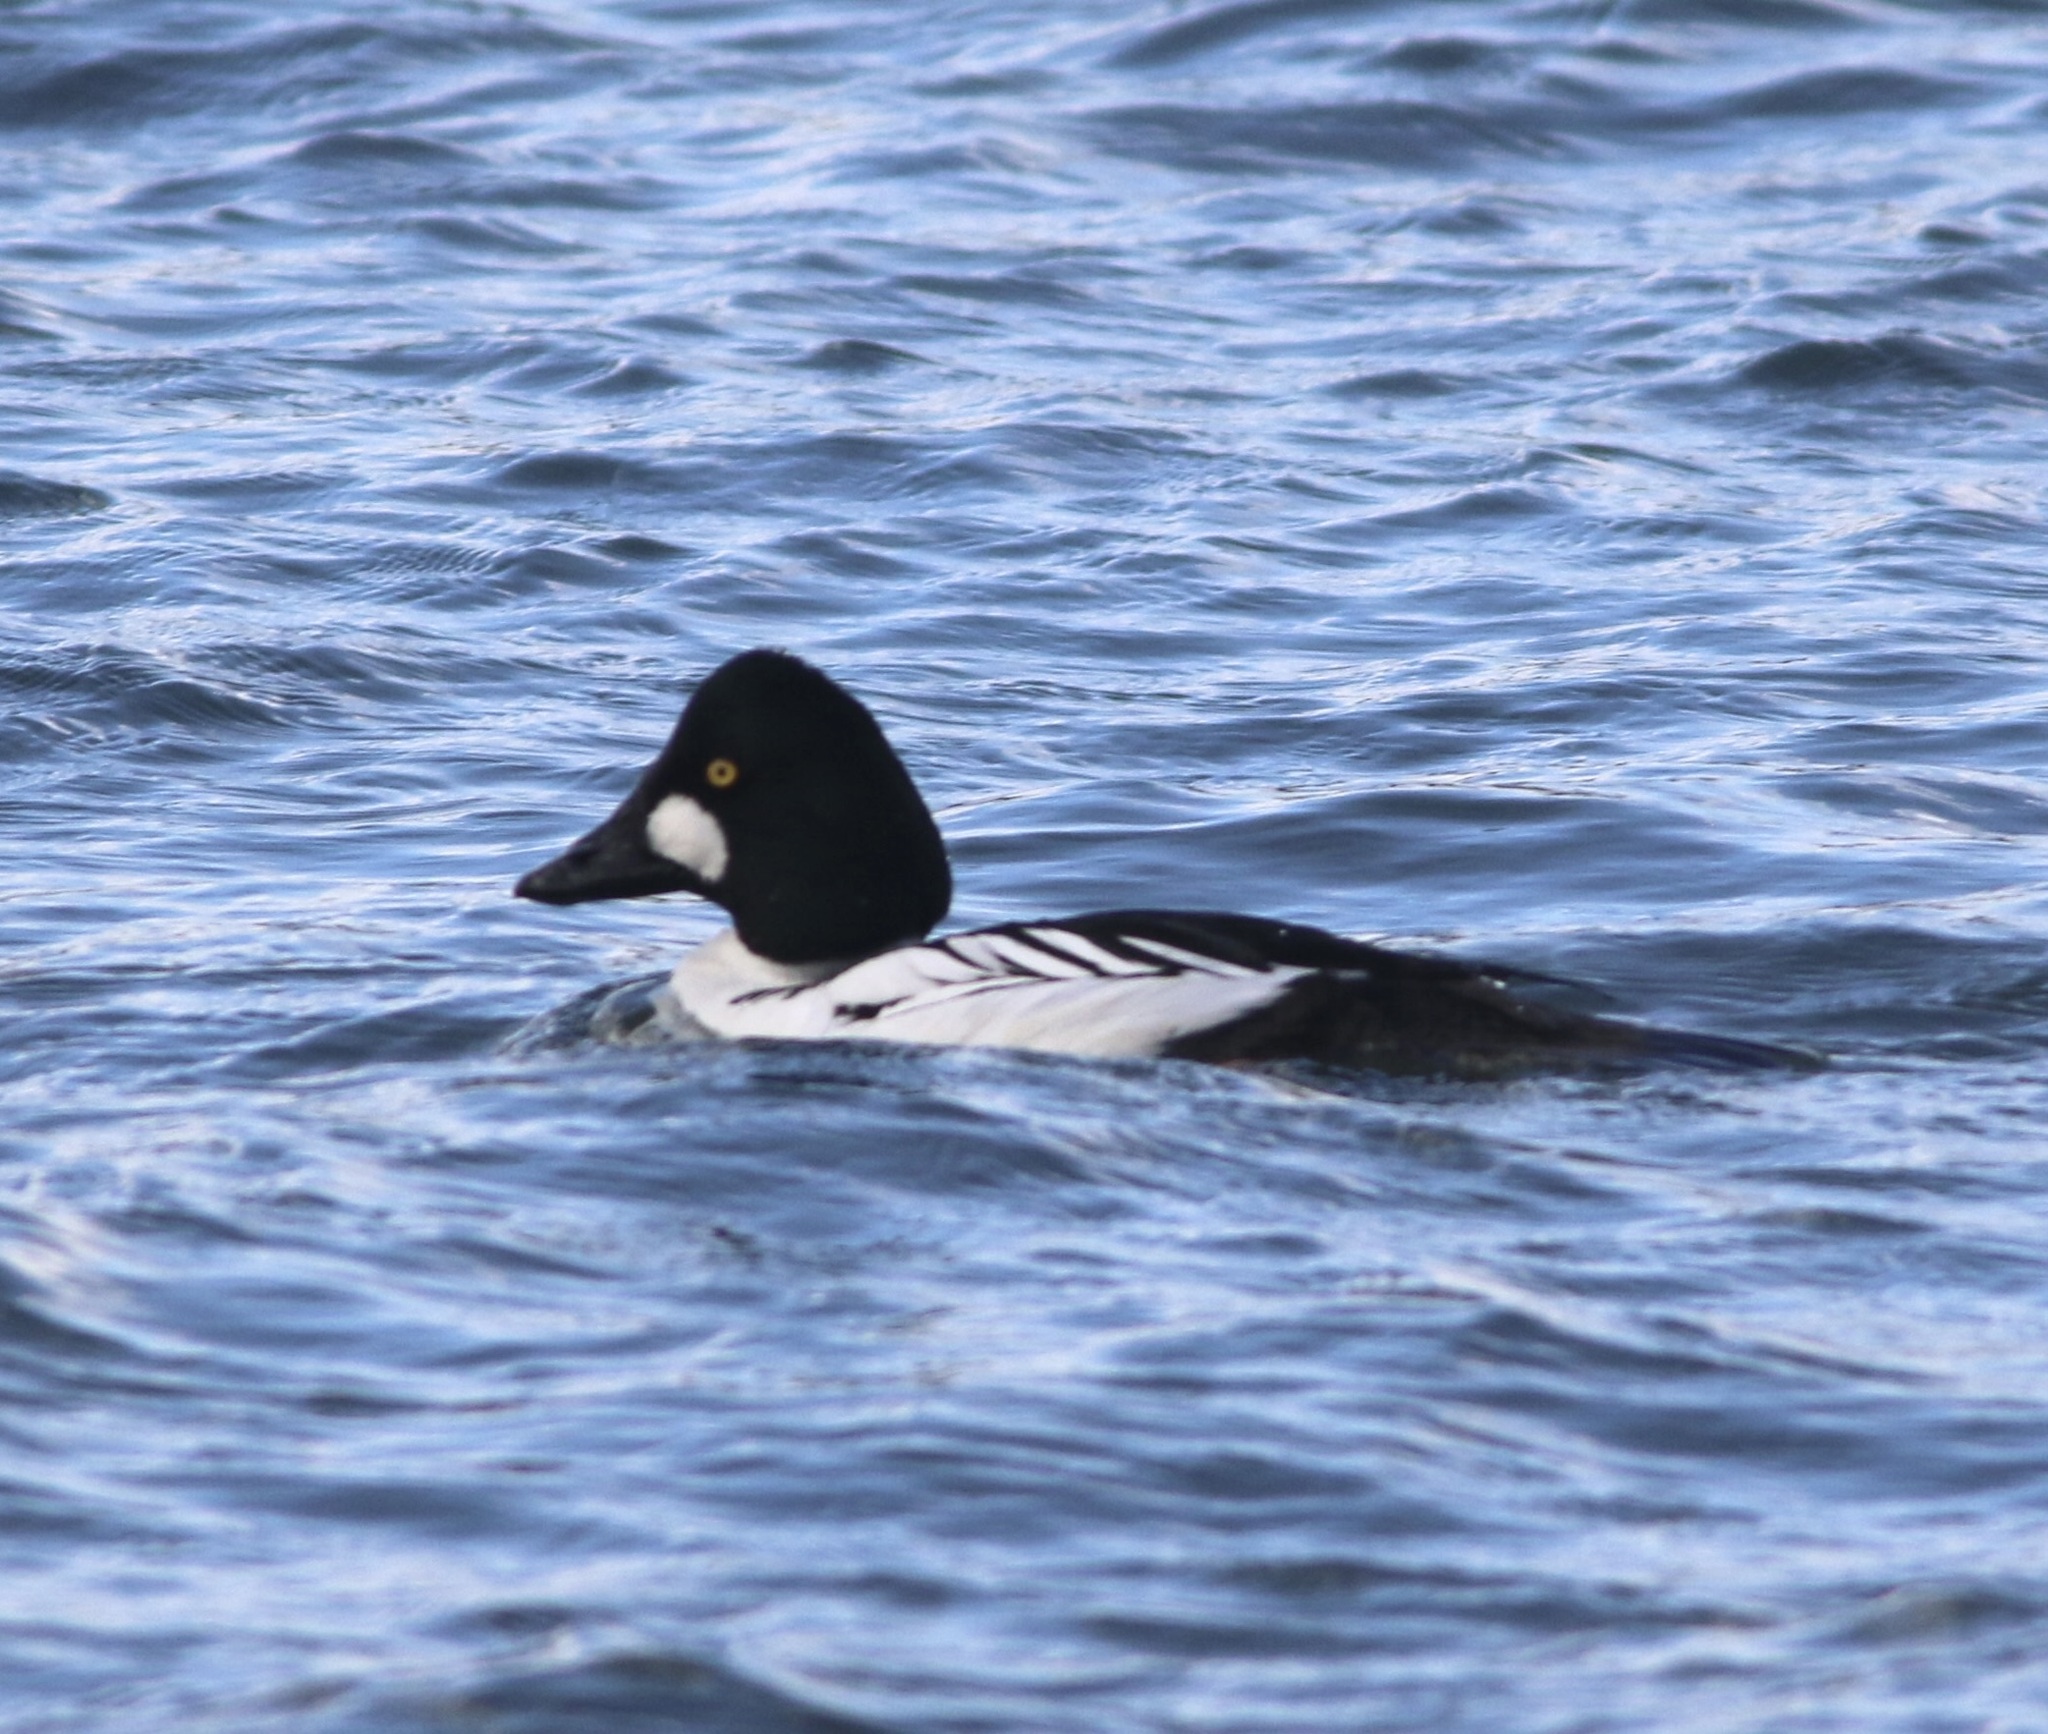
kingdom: Animalia
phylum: Chordata
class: Aves
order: Anseriformes
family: Anatidae
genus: Bucephala
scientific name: Bucephala clangula
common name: Common goldeneye
